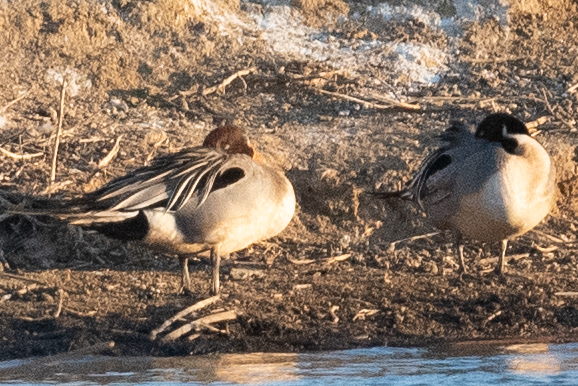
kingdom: Animalia
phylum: Chordata
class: Aves
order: Anseriformes
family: Anatidae
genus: Anas
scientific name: Anas acuta
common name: Northern pintail
